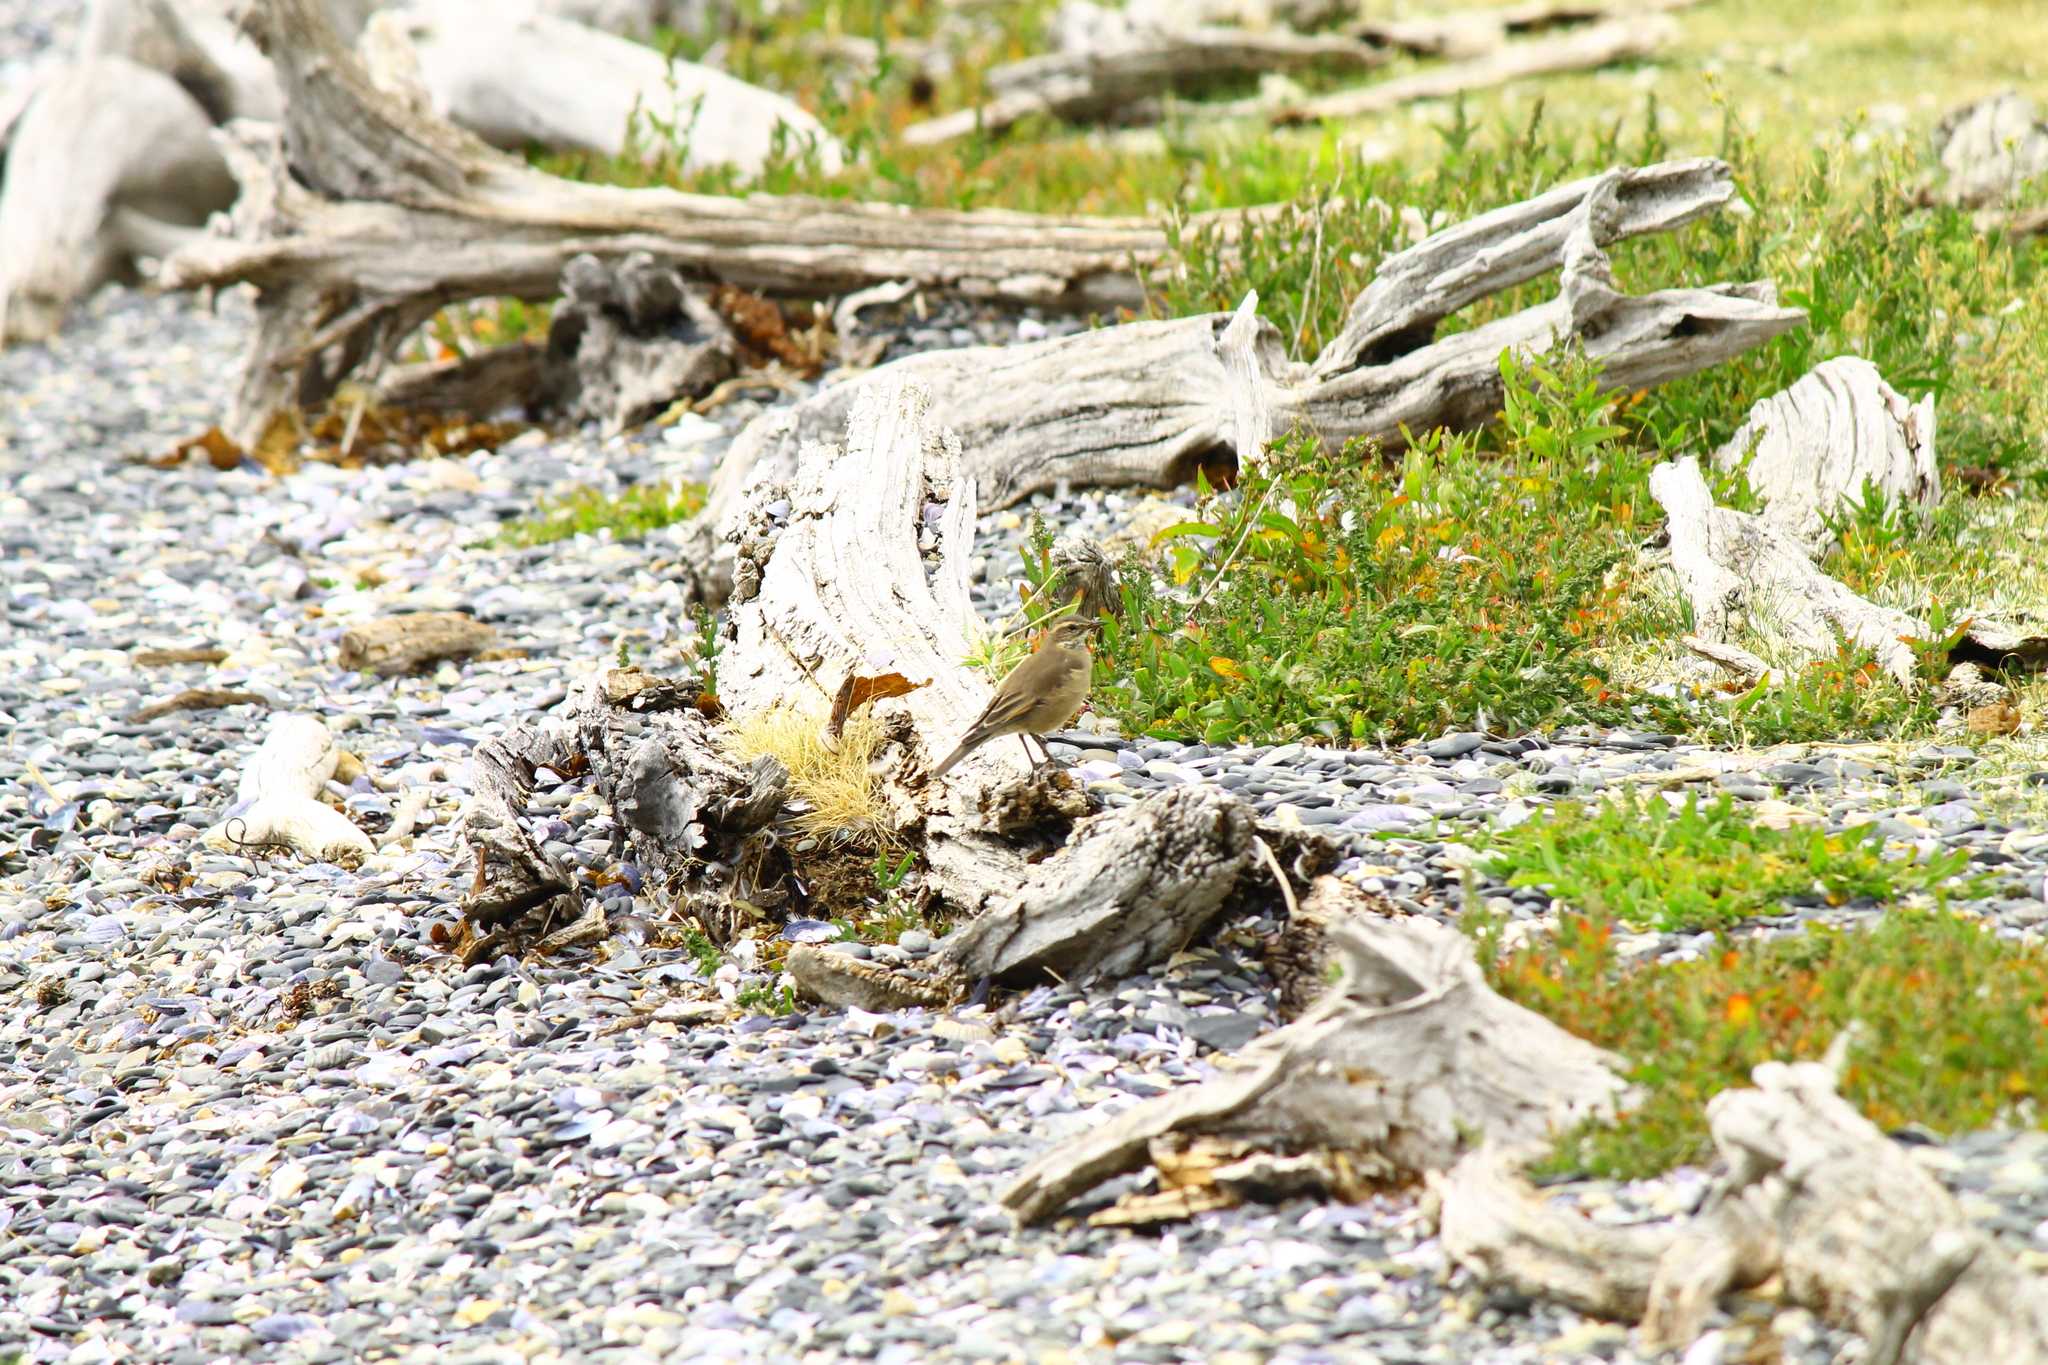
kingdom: Animalia
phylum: Chordata
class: Aves
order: Passeriformes
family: Furnariidae
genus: Cinclodes
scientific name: Cinclodes fuscus
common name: Buff-winged cinclodes
